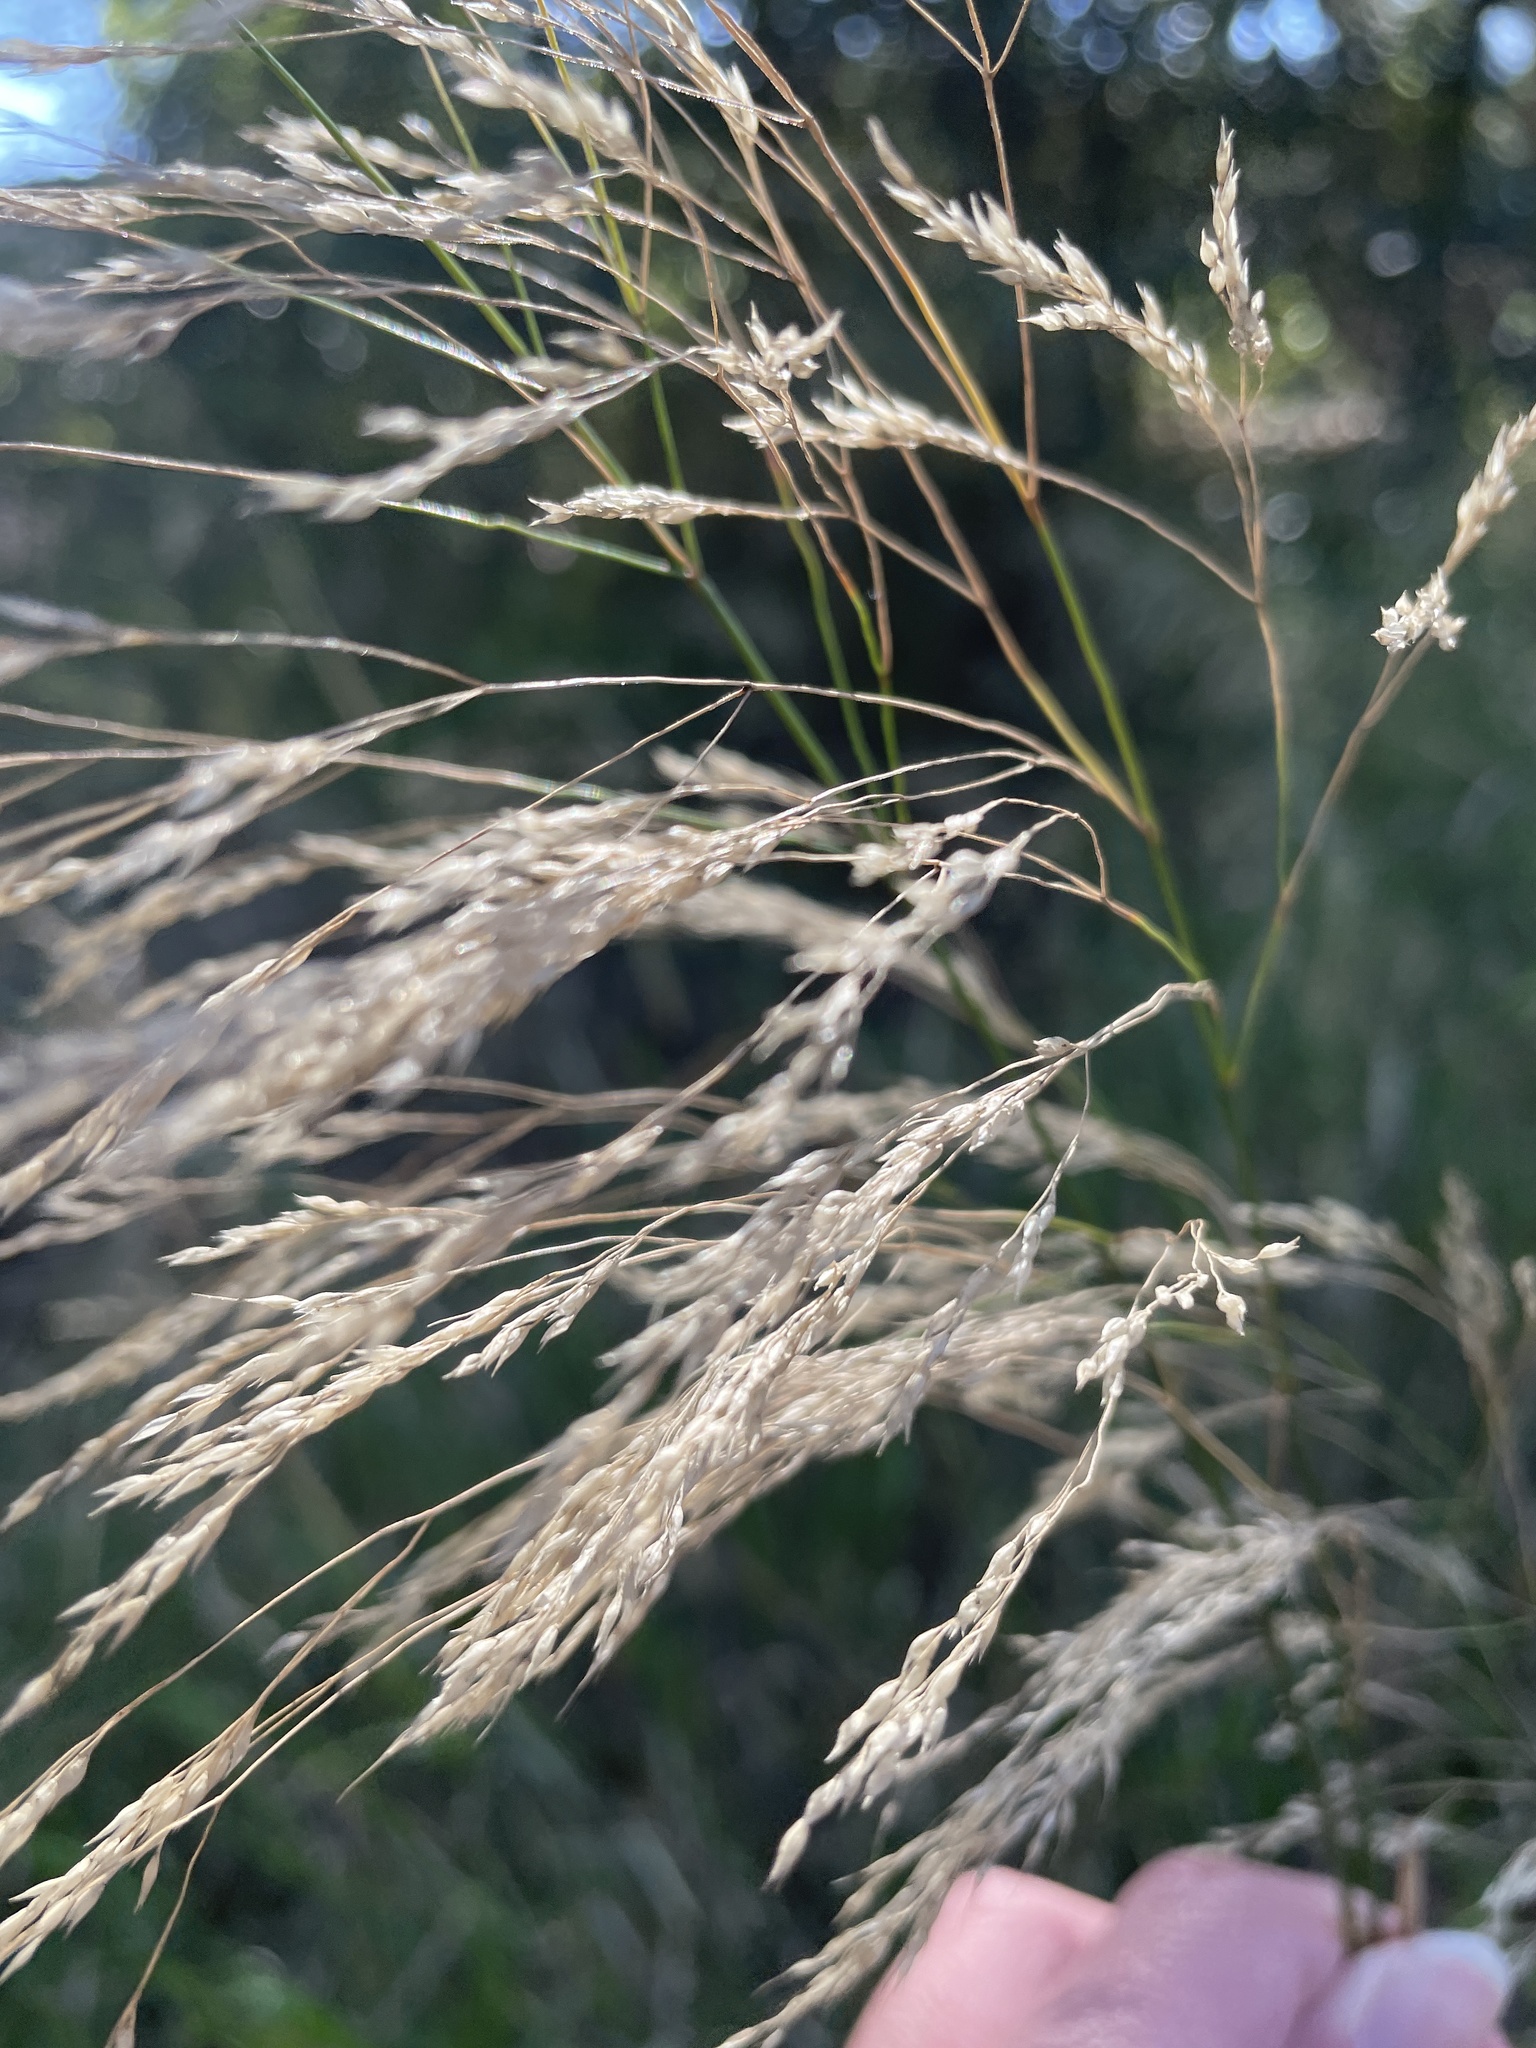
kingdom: Plantae
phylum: Tracheophyta
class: Liliopsida
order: Poales
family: Poaceae
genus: Oloptum
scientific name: Oloptum miliaceum
